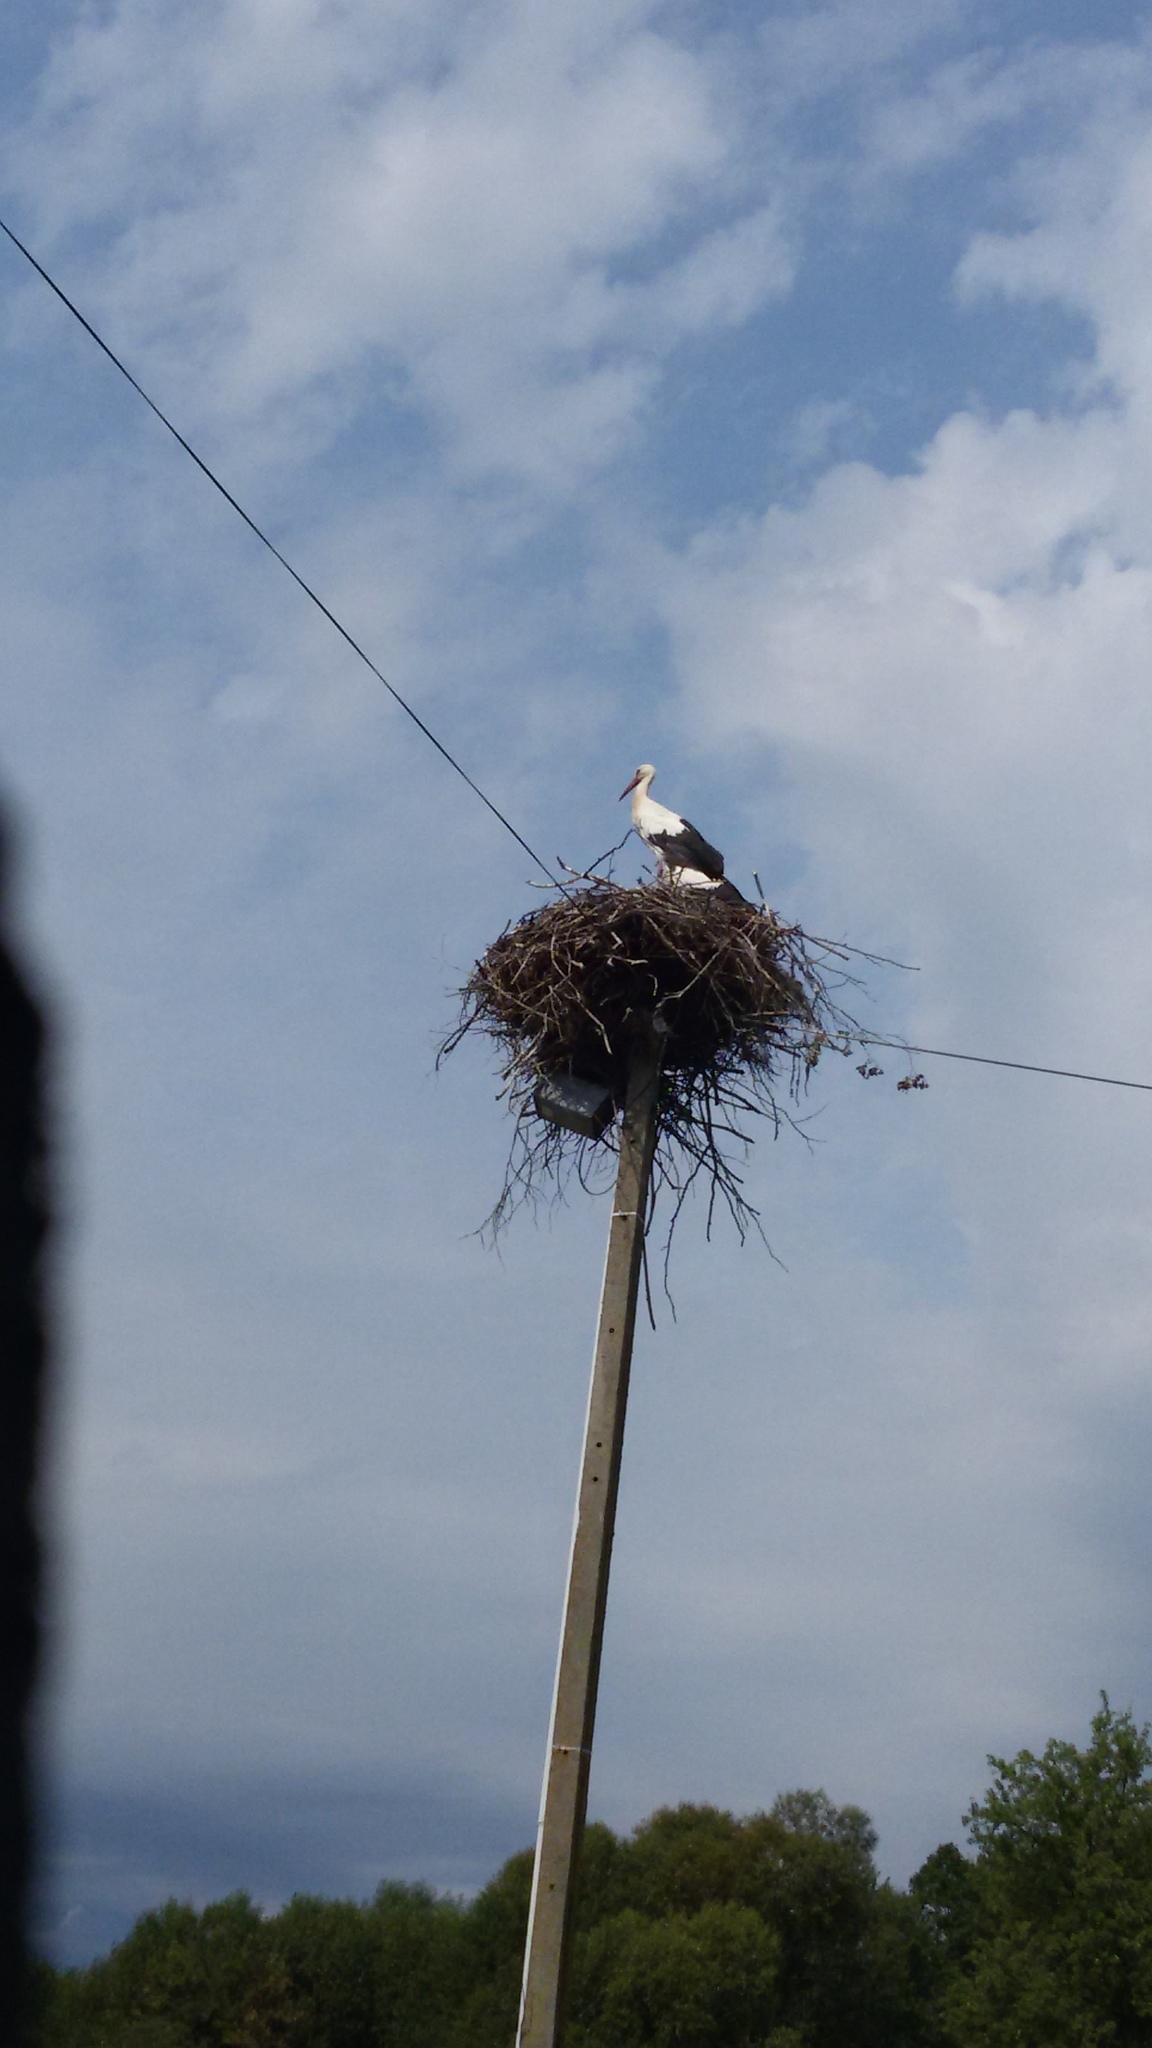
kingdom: Animalia
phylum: Chordata
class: Aves
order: Ciconiiformes
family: Ciconiidae
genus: Ciconia
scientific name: Ciconia ciconia
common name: White stork
